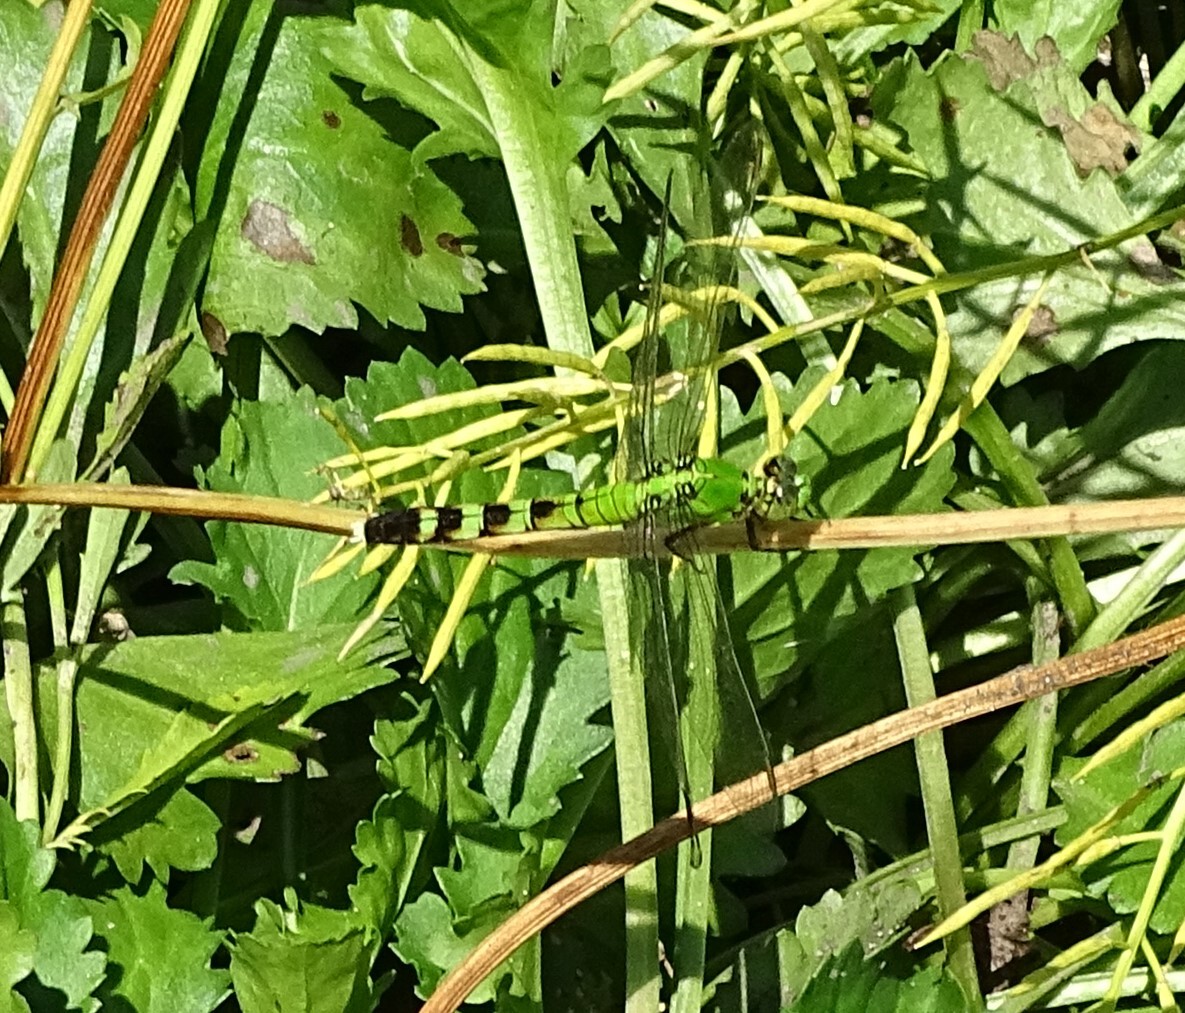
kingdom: Animalia
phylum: Arthropoda
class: Insecta
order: Odonata
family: Libellulidae
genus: Erythemis
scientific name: Erythemis simplicicollis
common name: Eastern pondhawk
